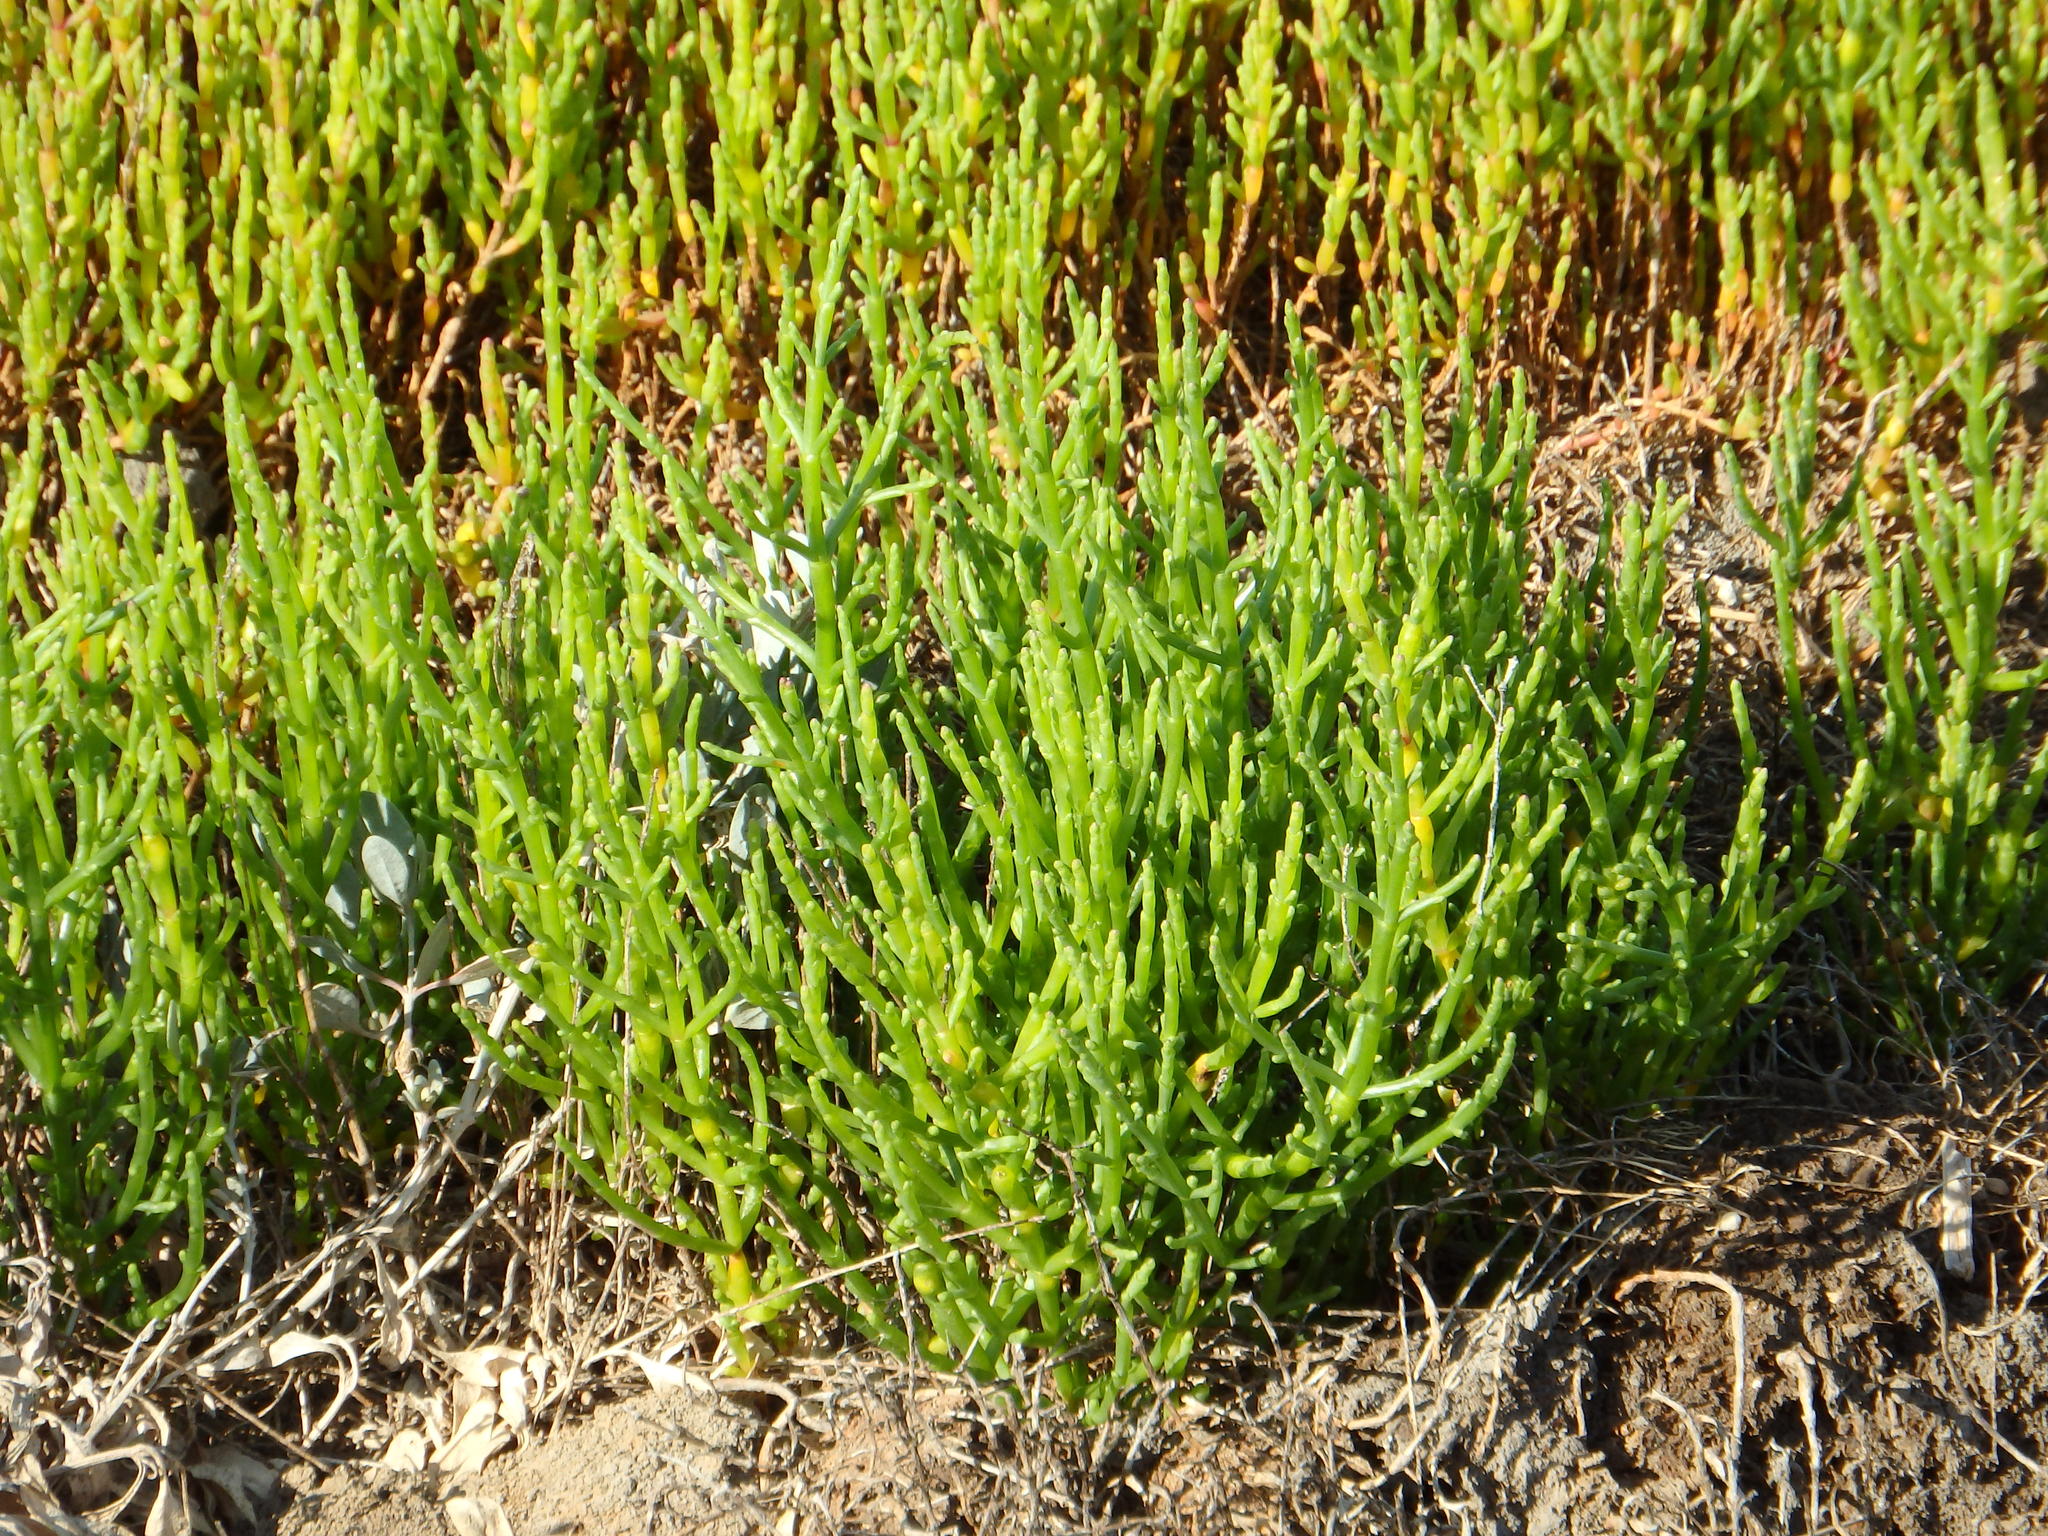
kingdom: Plantae
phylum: Tracheophyta
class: Magnoliopsida
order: Caryophyllales
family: Amaranthaceae
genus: Salicornia
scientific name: Salicornia europaea
